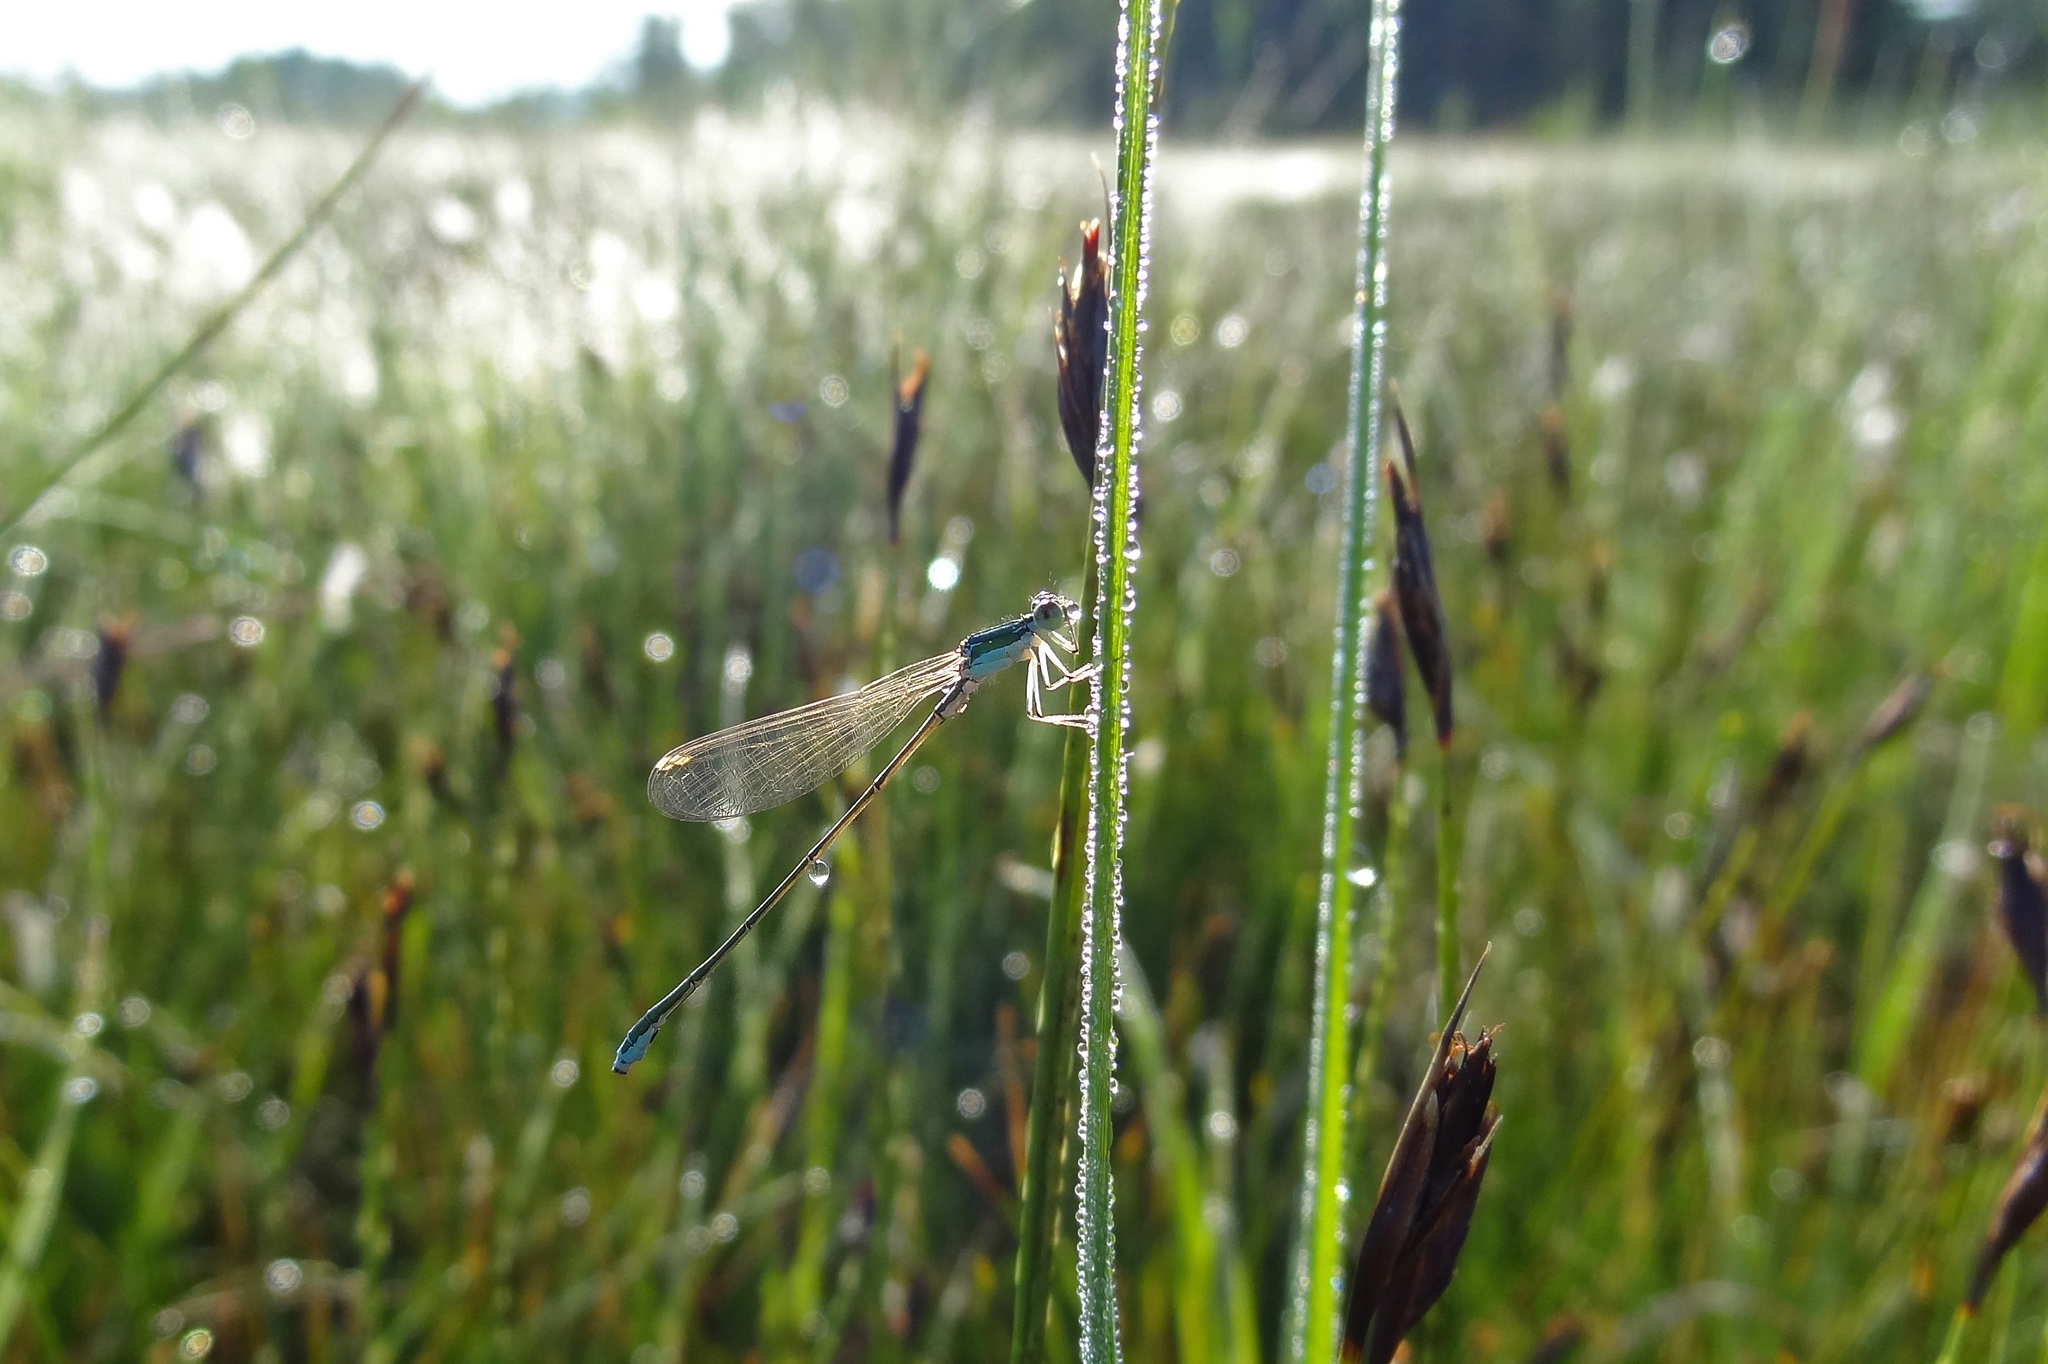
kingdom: Animalia
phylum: Arthropoda
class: Insecta
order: Odonata
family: Coenagrionidae
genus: Nehalennia
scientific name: Nehalennia speciosa
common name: Sedgling
